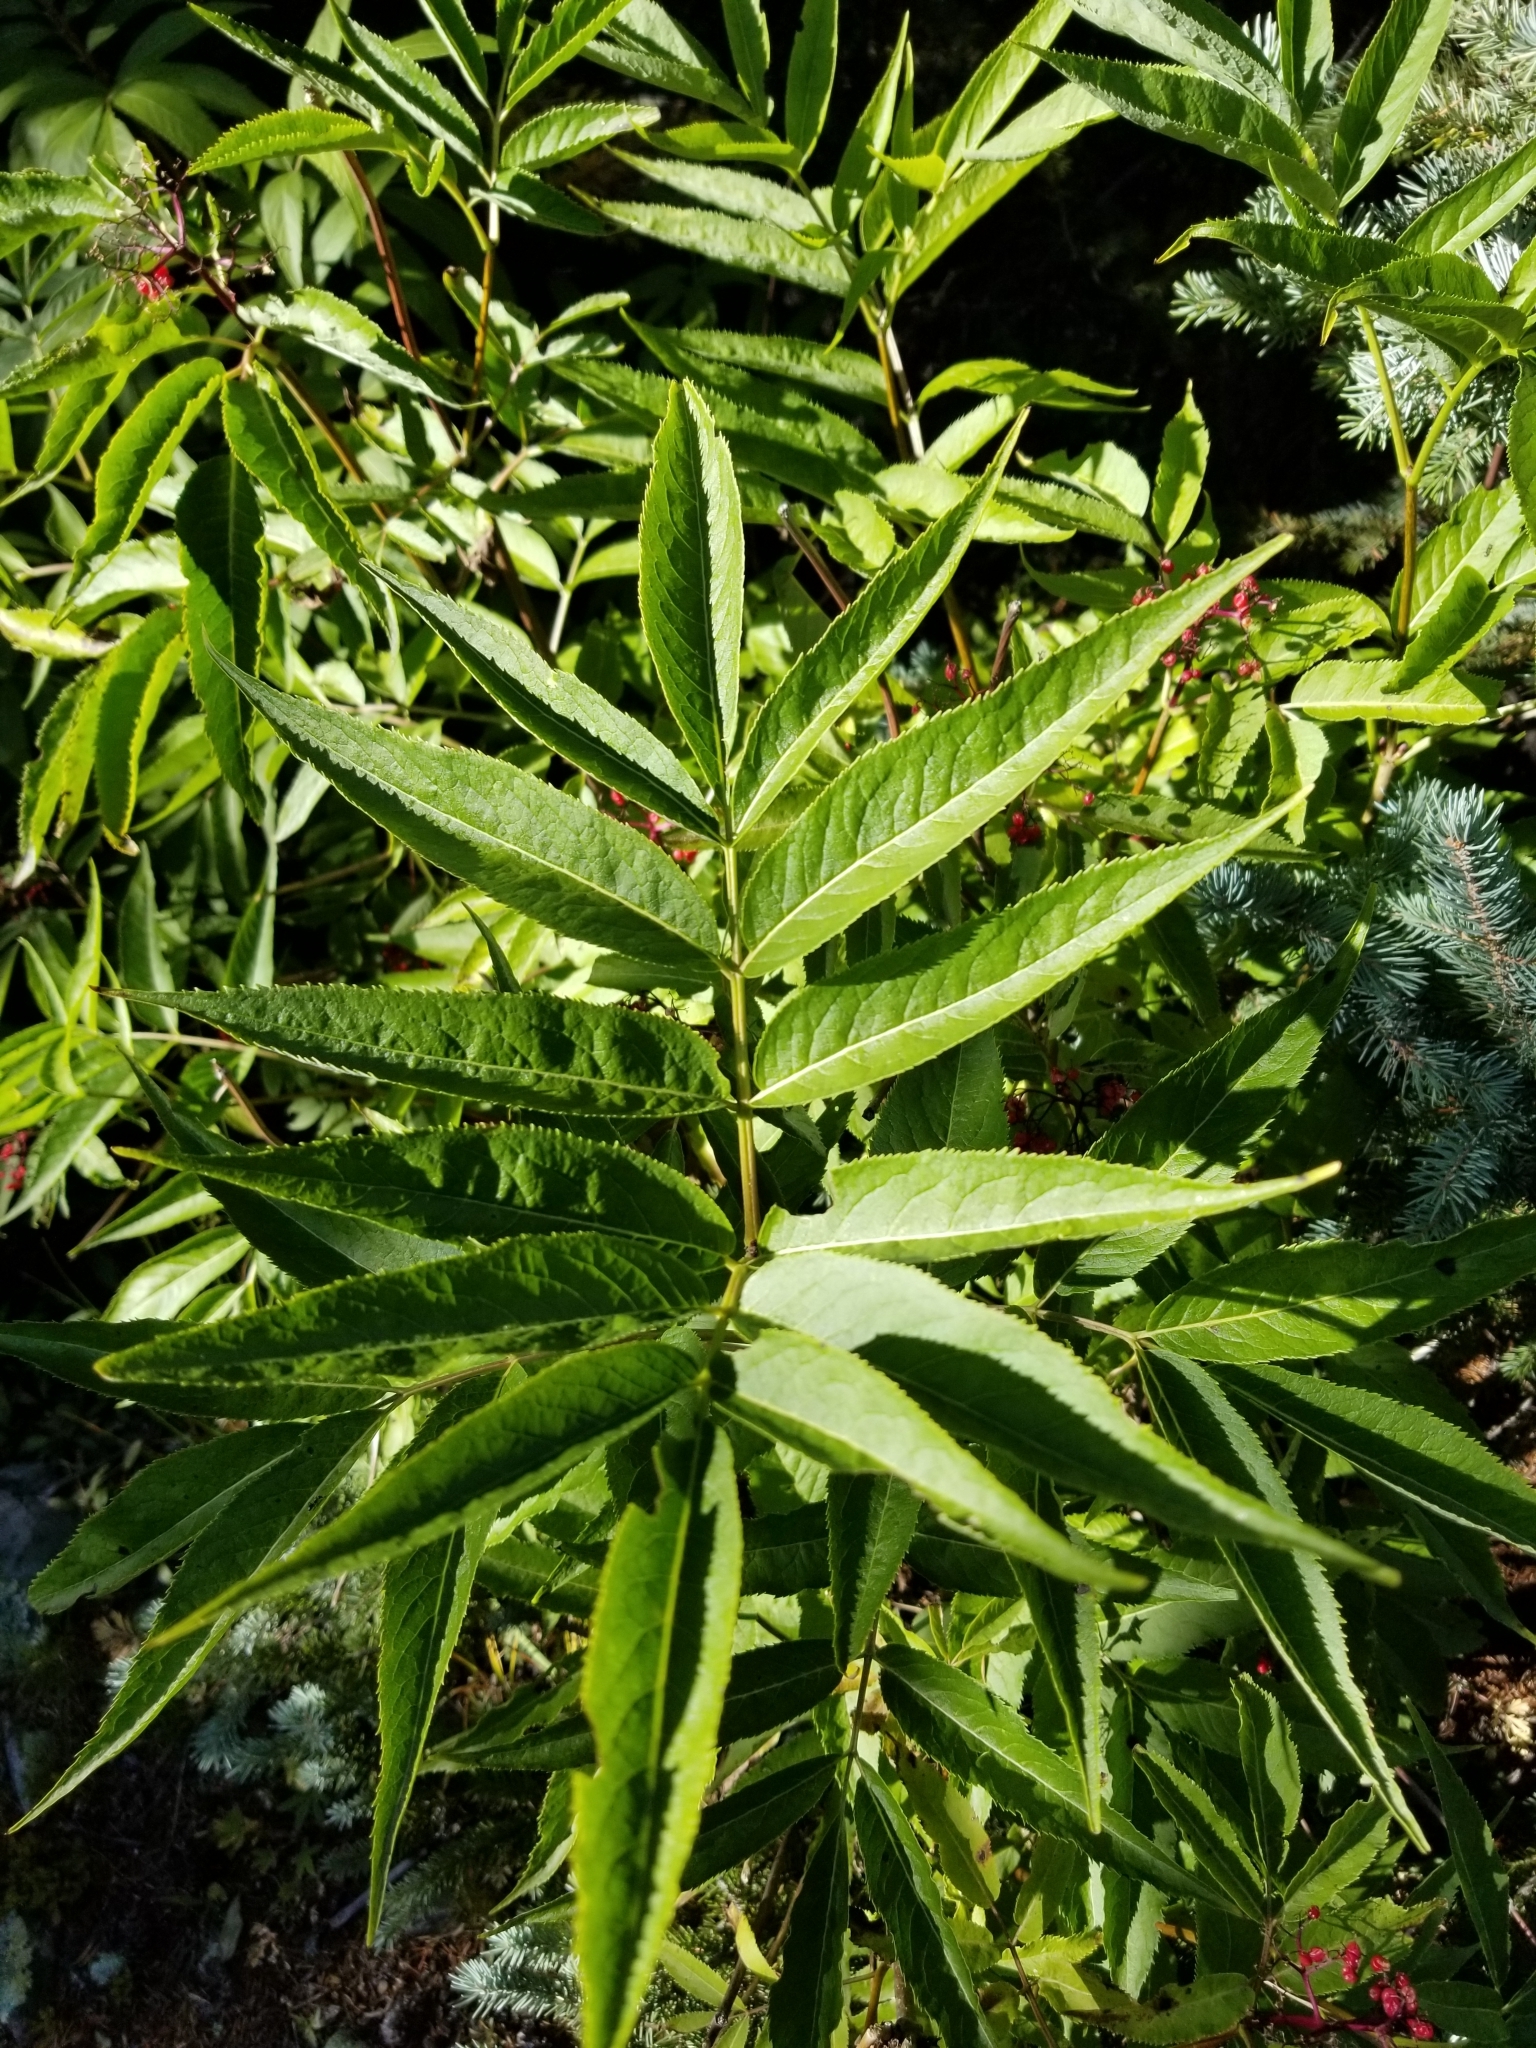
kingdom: Plantae
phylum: Tracheophyta
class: Magnoliopsida
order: Dipsacales
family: Viburnaceae
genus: Sambucus
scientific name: Sambucus racemosa
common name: Red-berried elder
